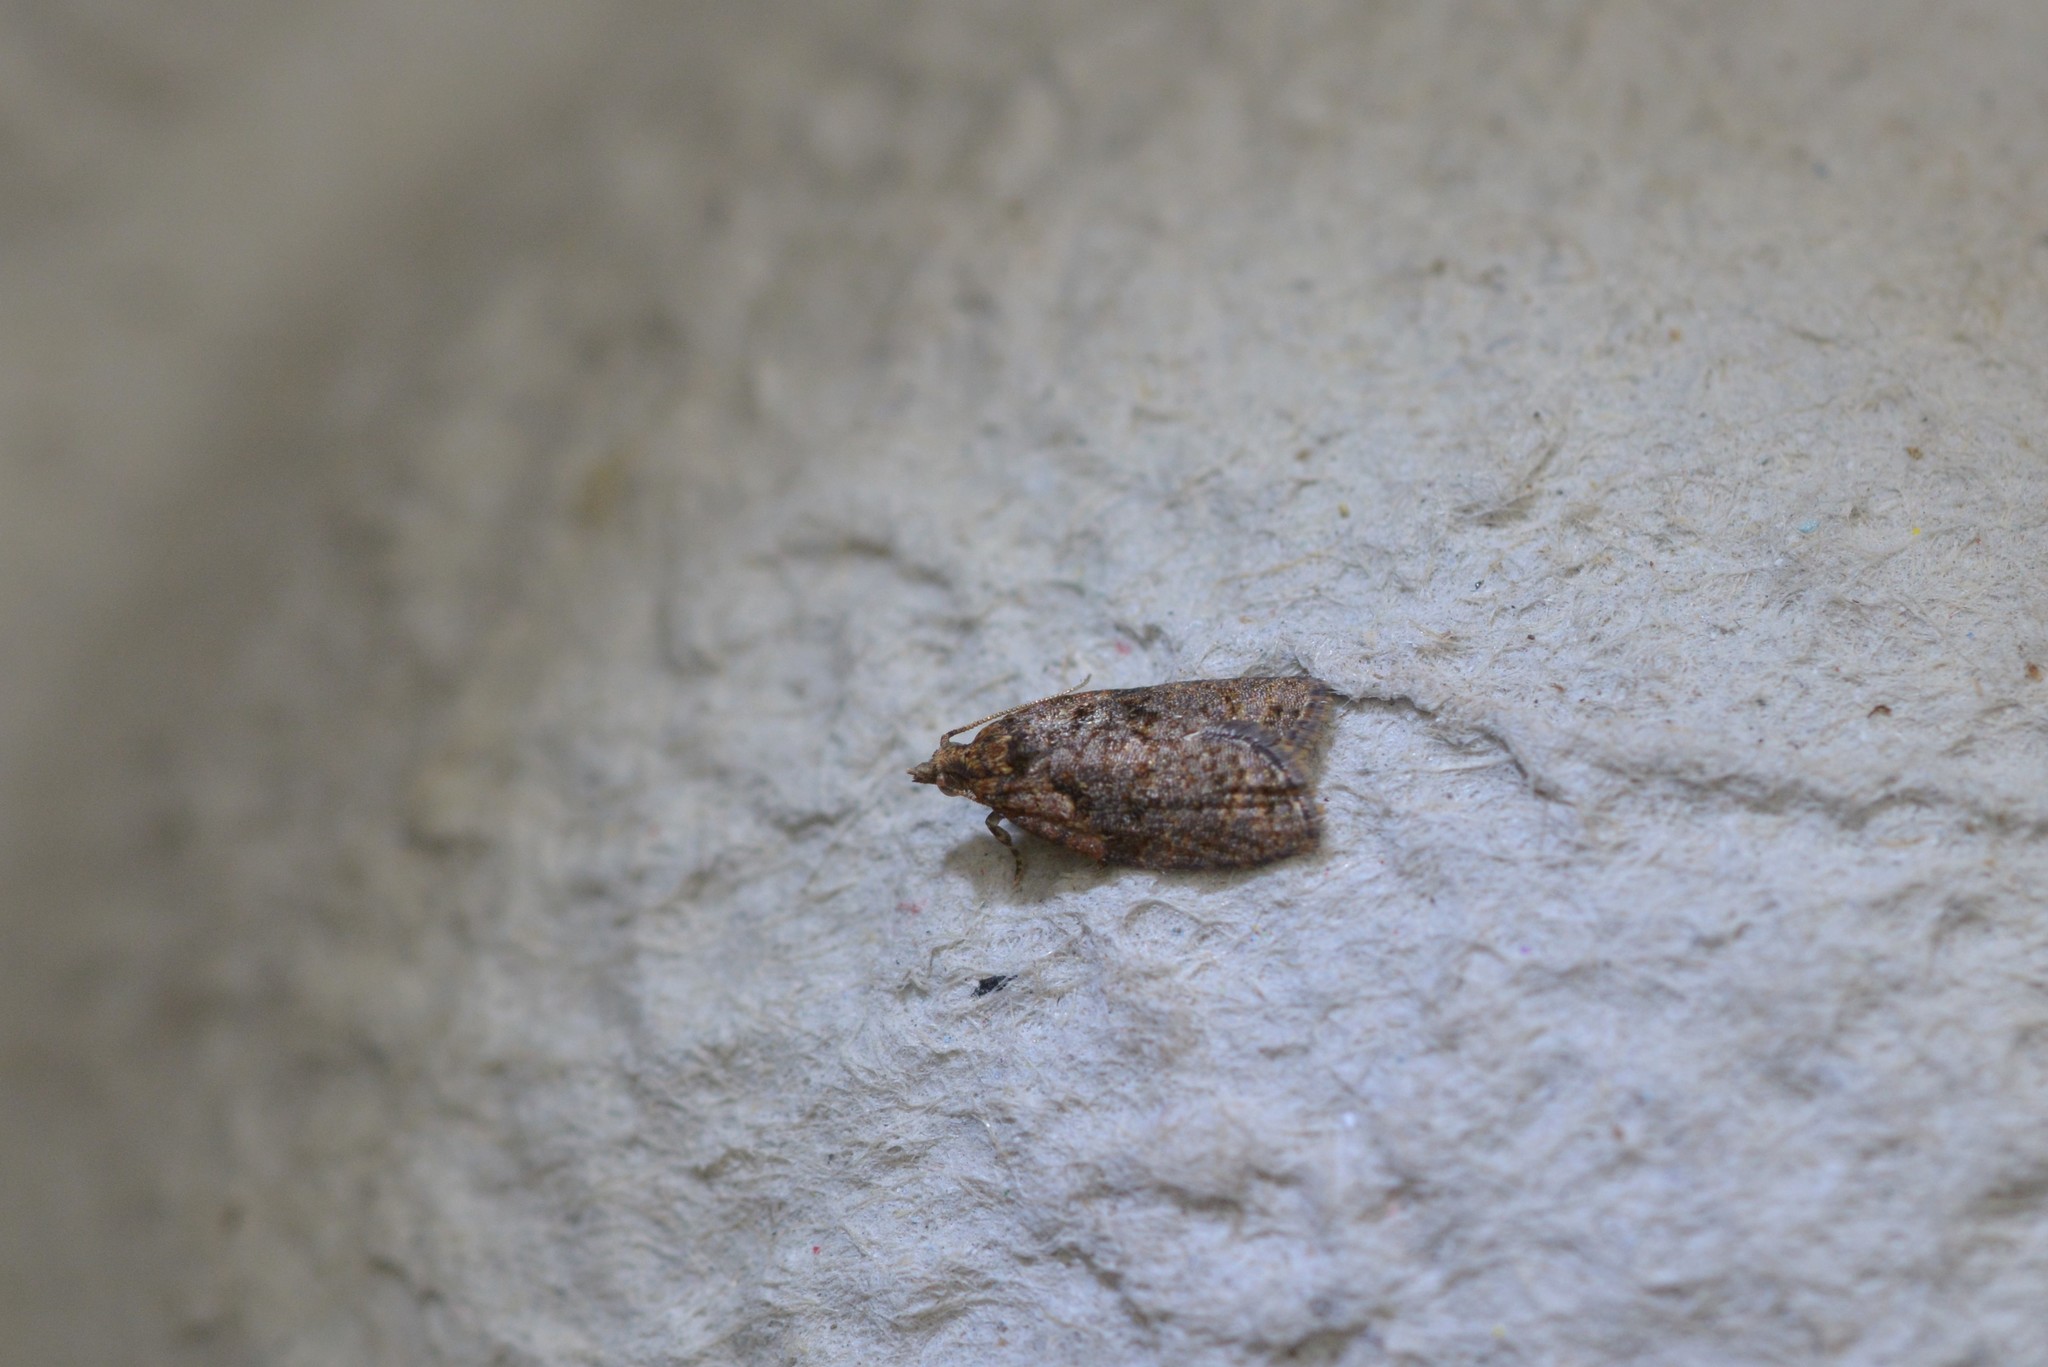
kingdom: Animalia
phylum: Arthropoda
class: Insecta
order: Lepidoptera
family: Tortricidae
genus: Capua
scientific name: Capua intractana
